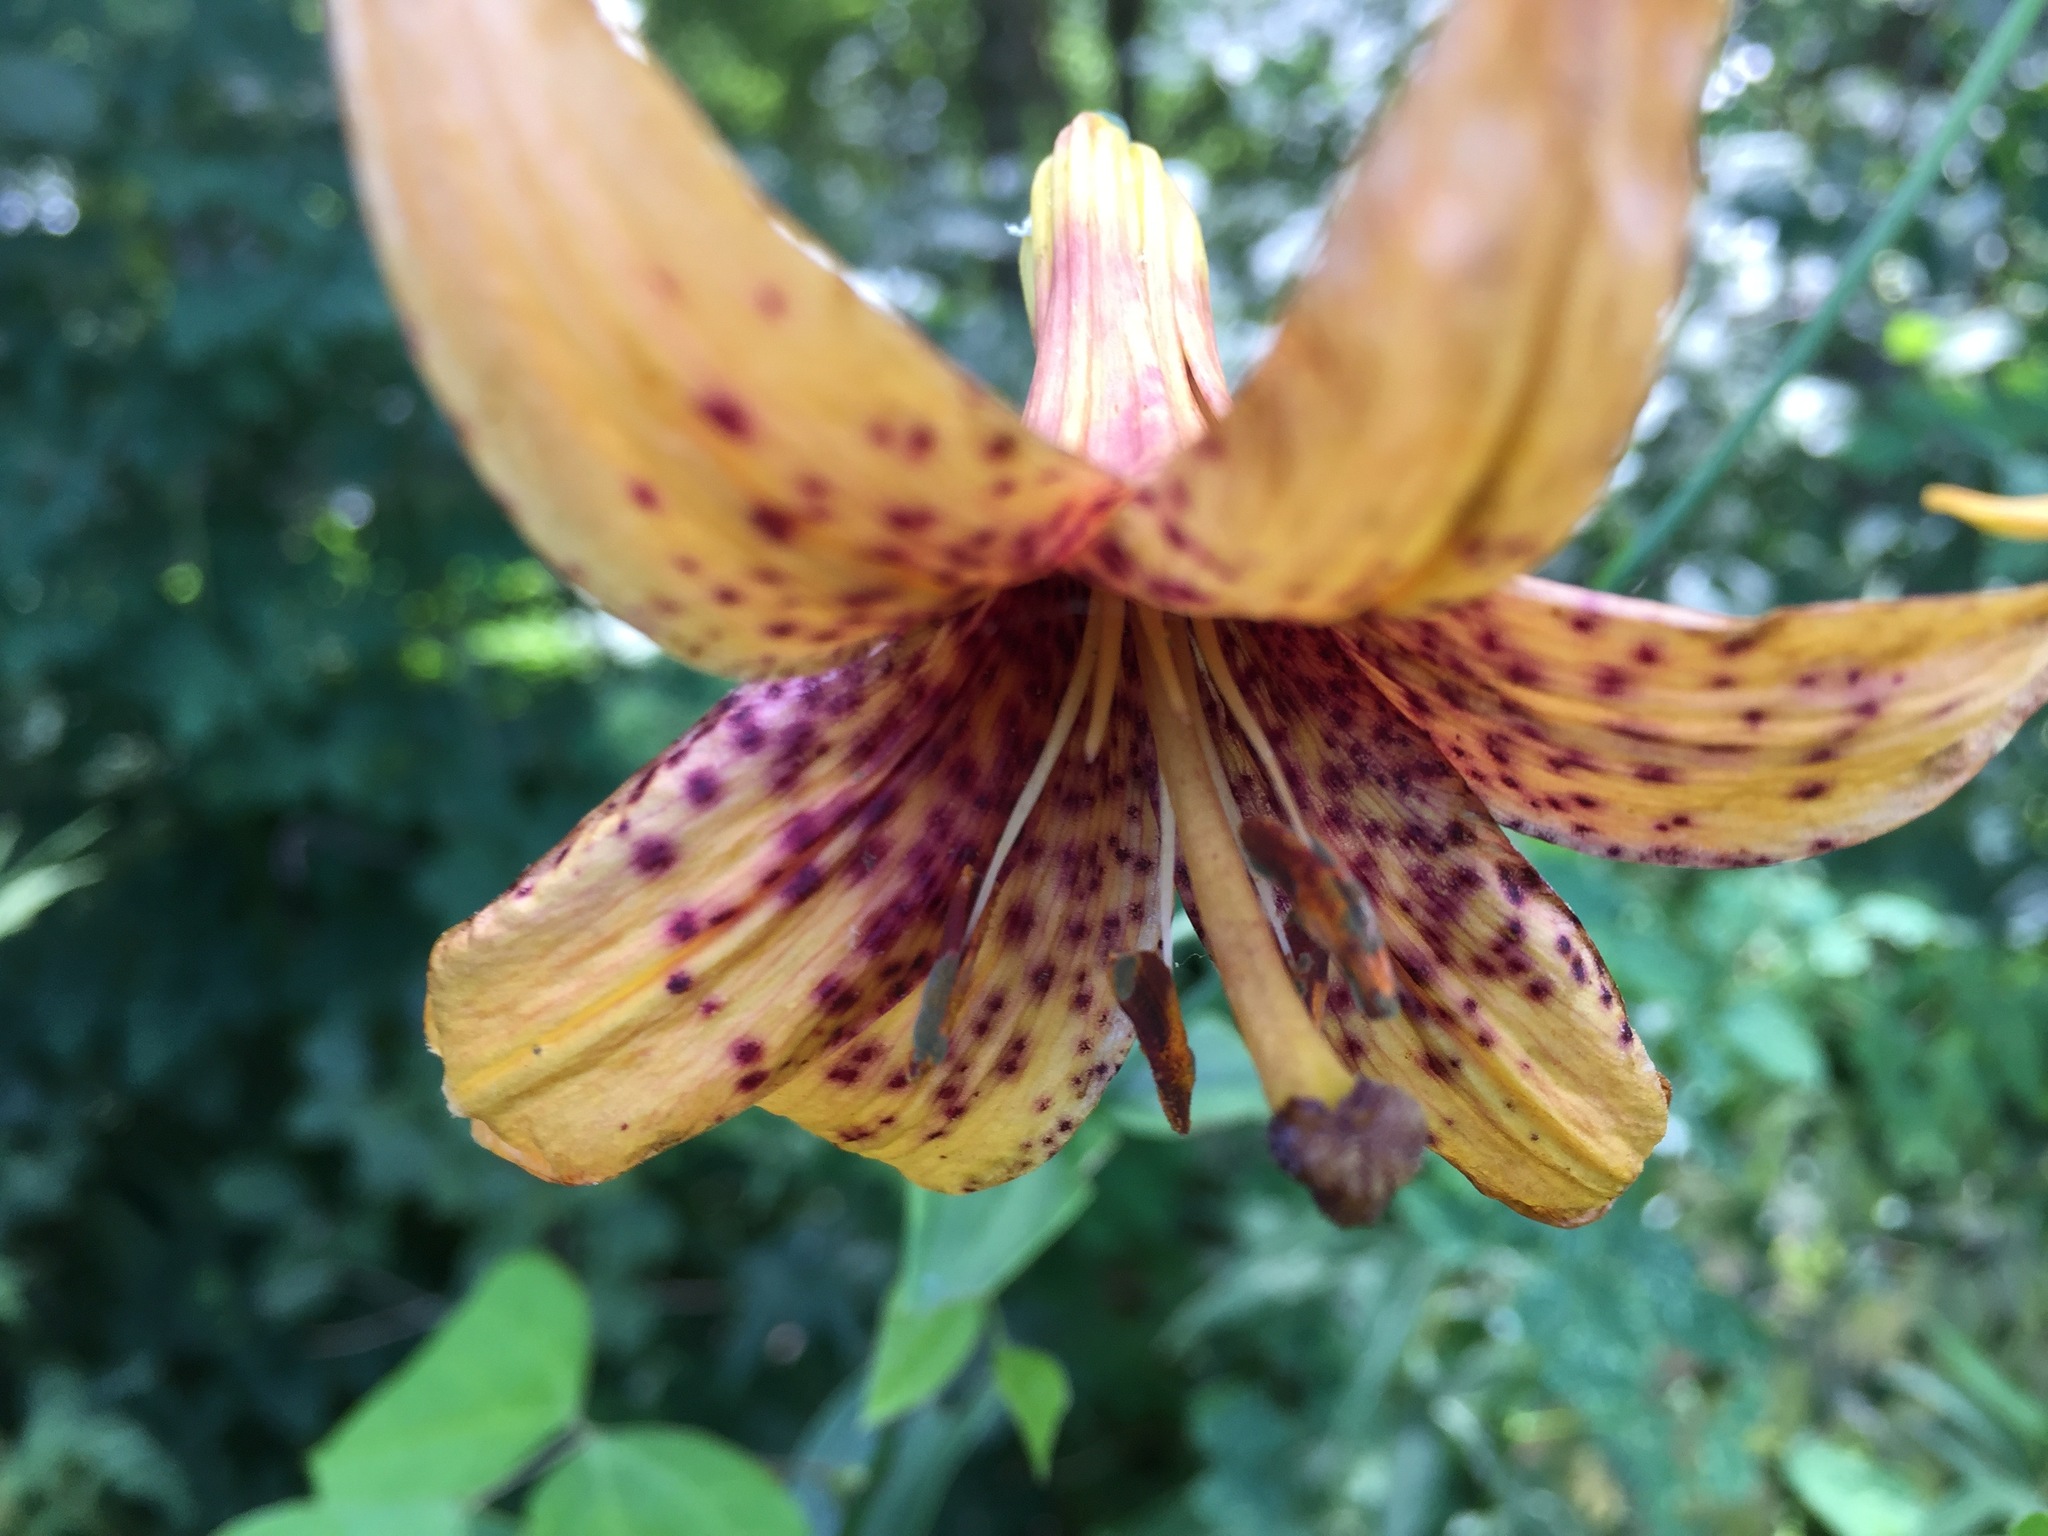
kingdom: Plantae
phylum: Tracheophyta
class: Liliopsida
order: Liliales
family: Liliaceae
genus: Lilium
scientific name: Lilium canadense
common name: Canada lily
